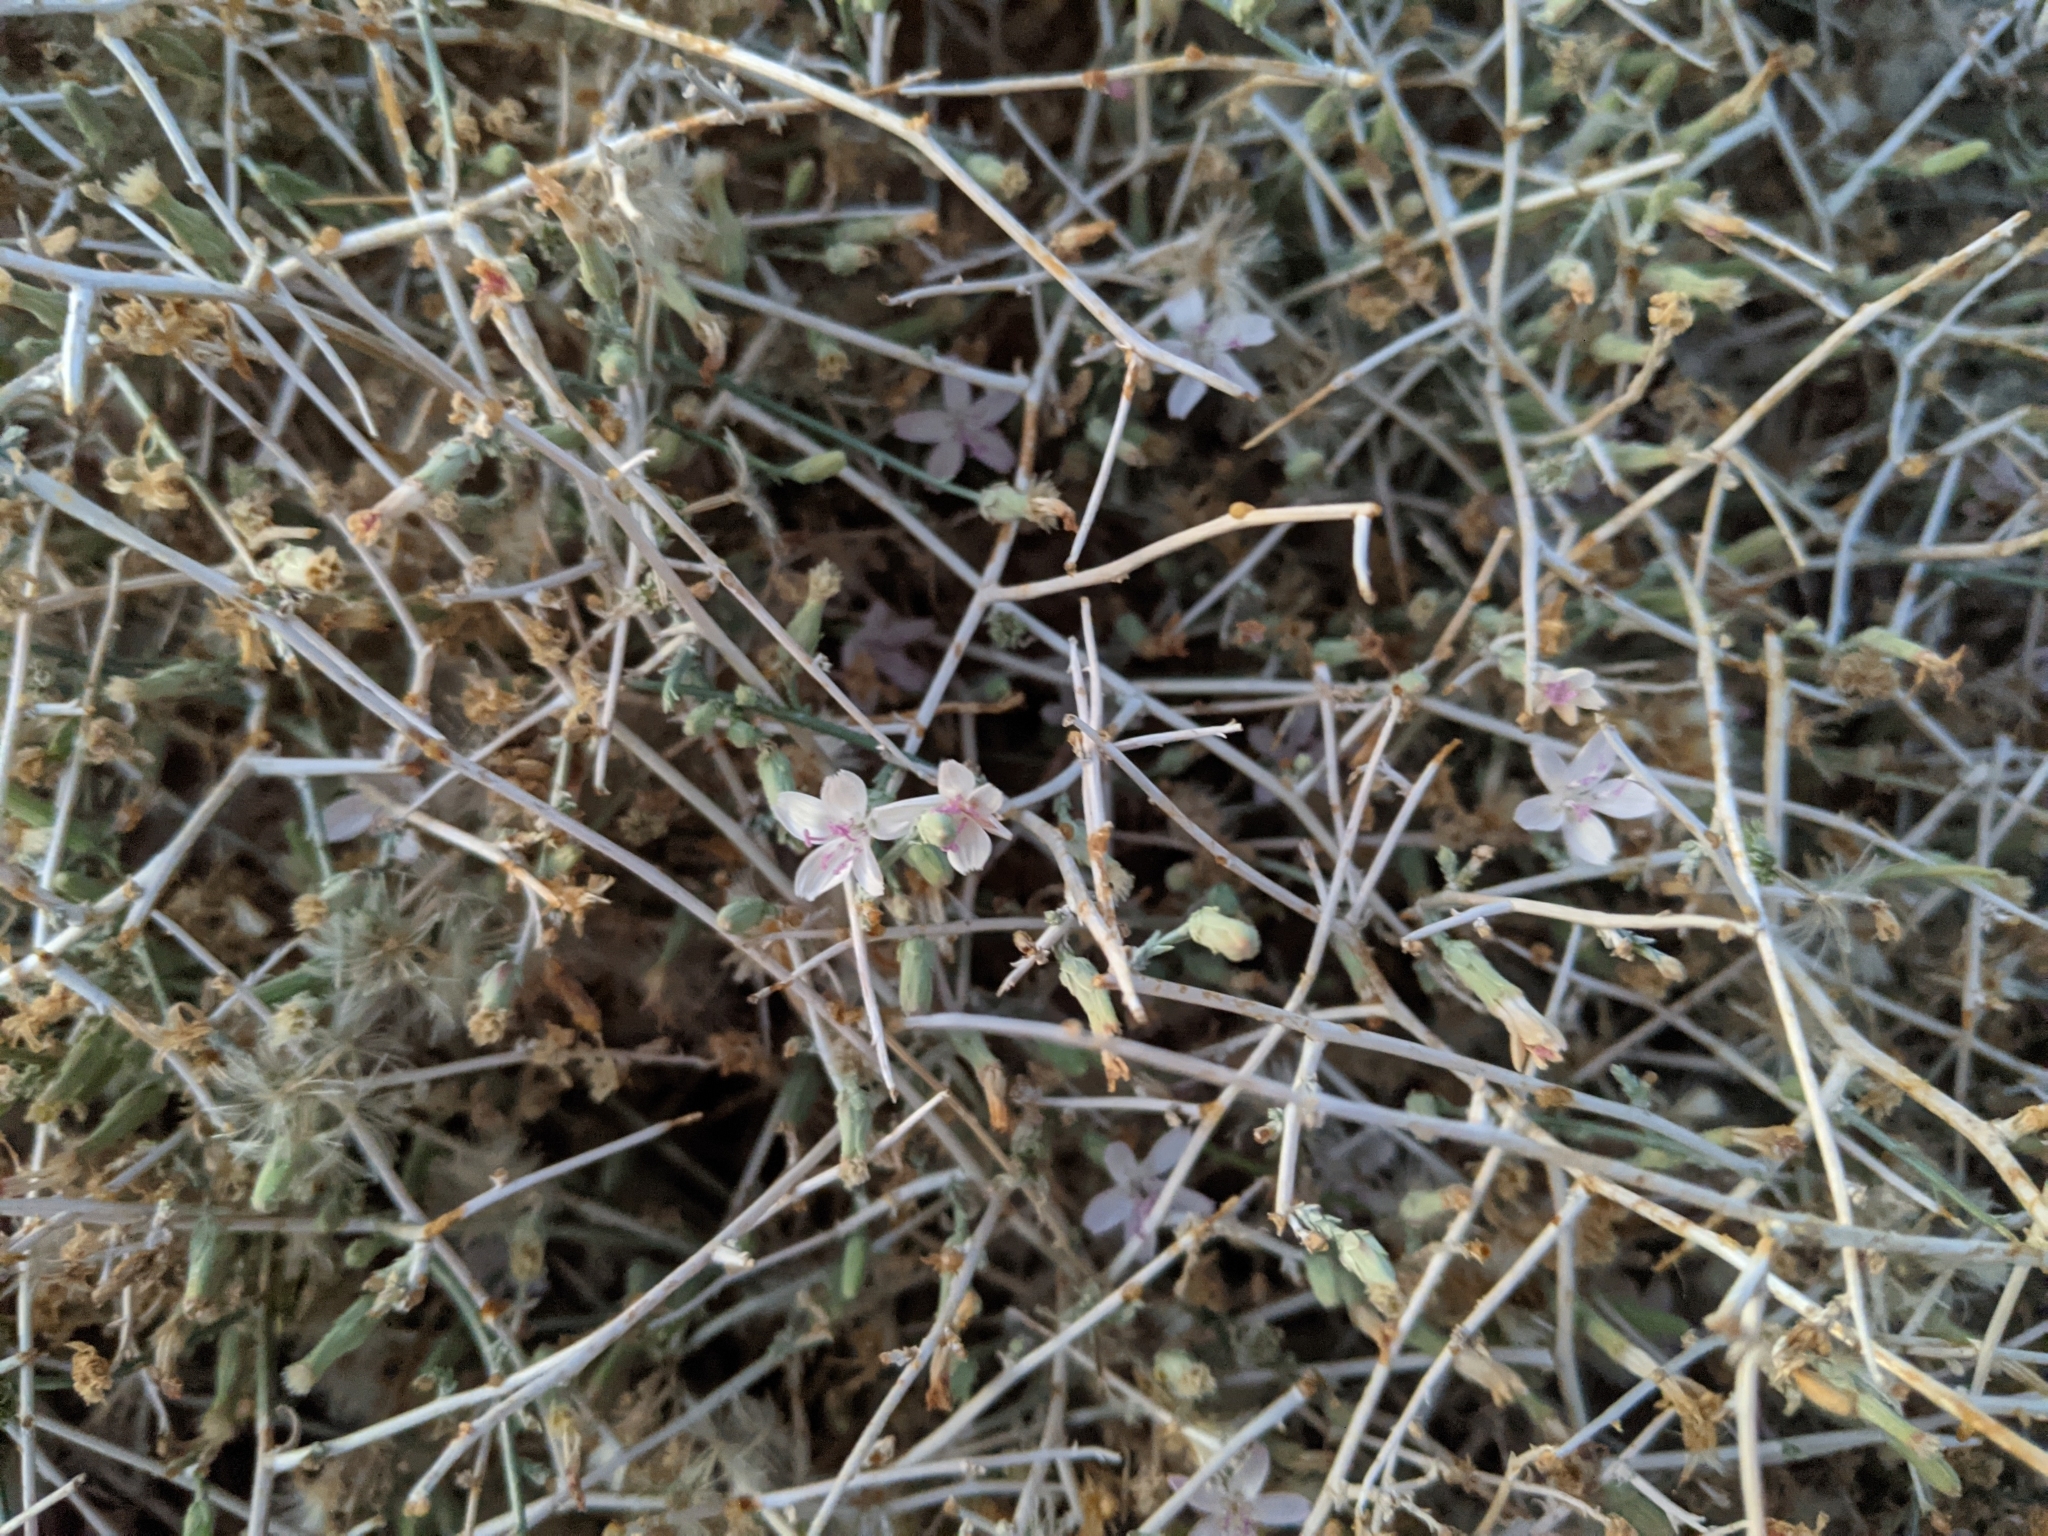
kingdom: Plantae
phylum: Tracheophyta
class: Magnoliopsida
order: Asterales
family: Asteraceae
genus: Stephanomeria
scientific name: Stephanomeria pauciflora
